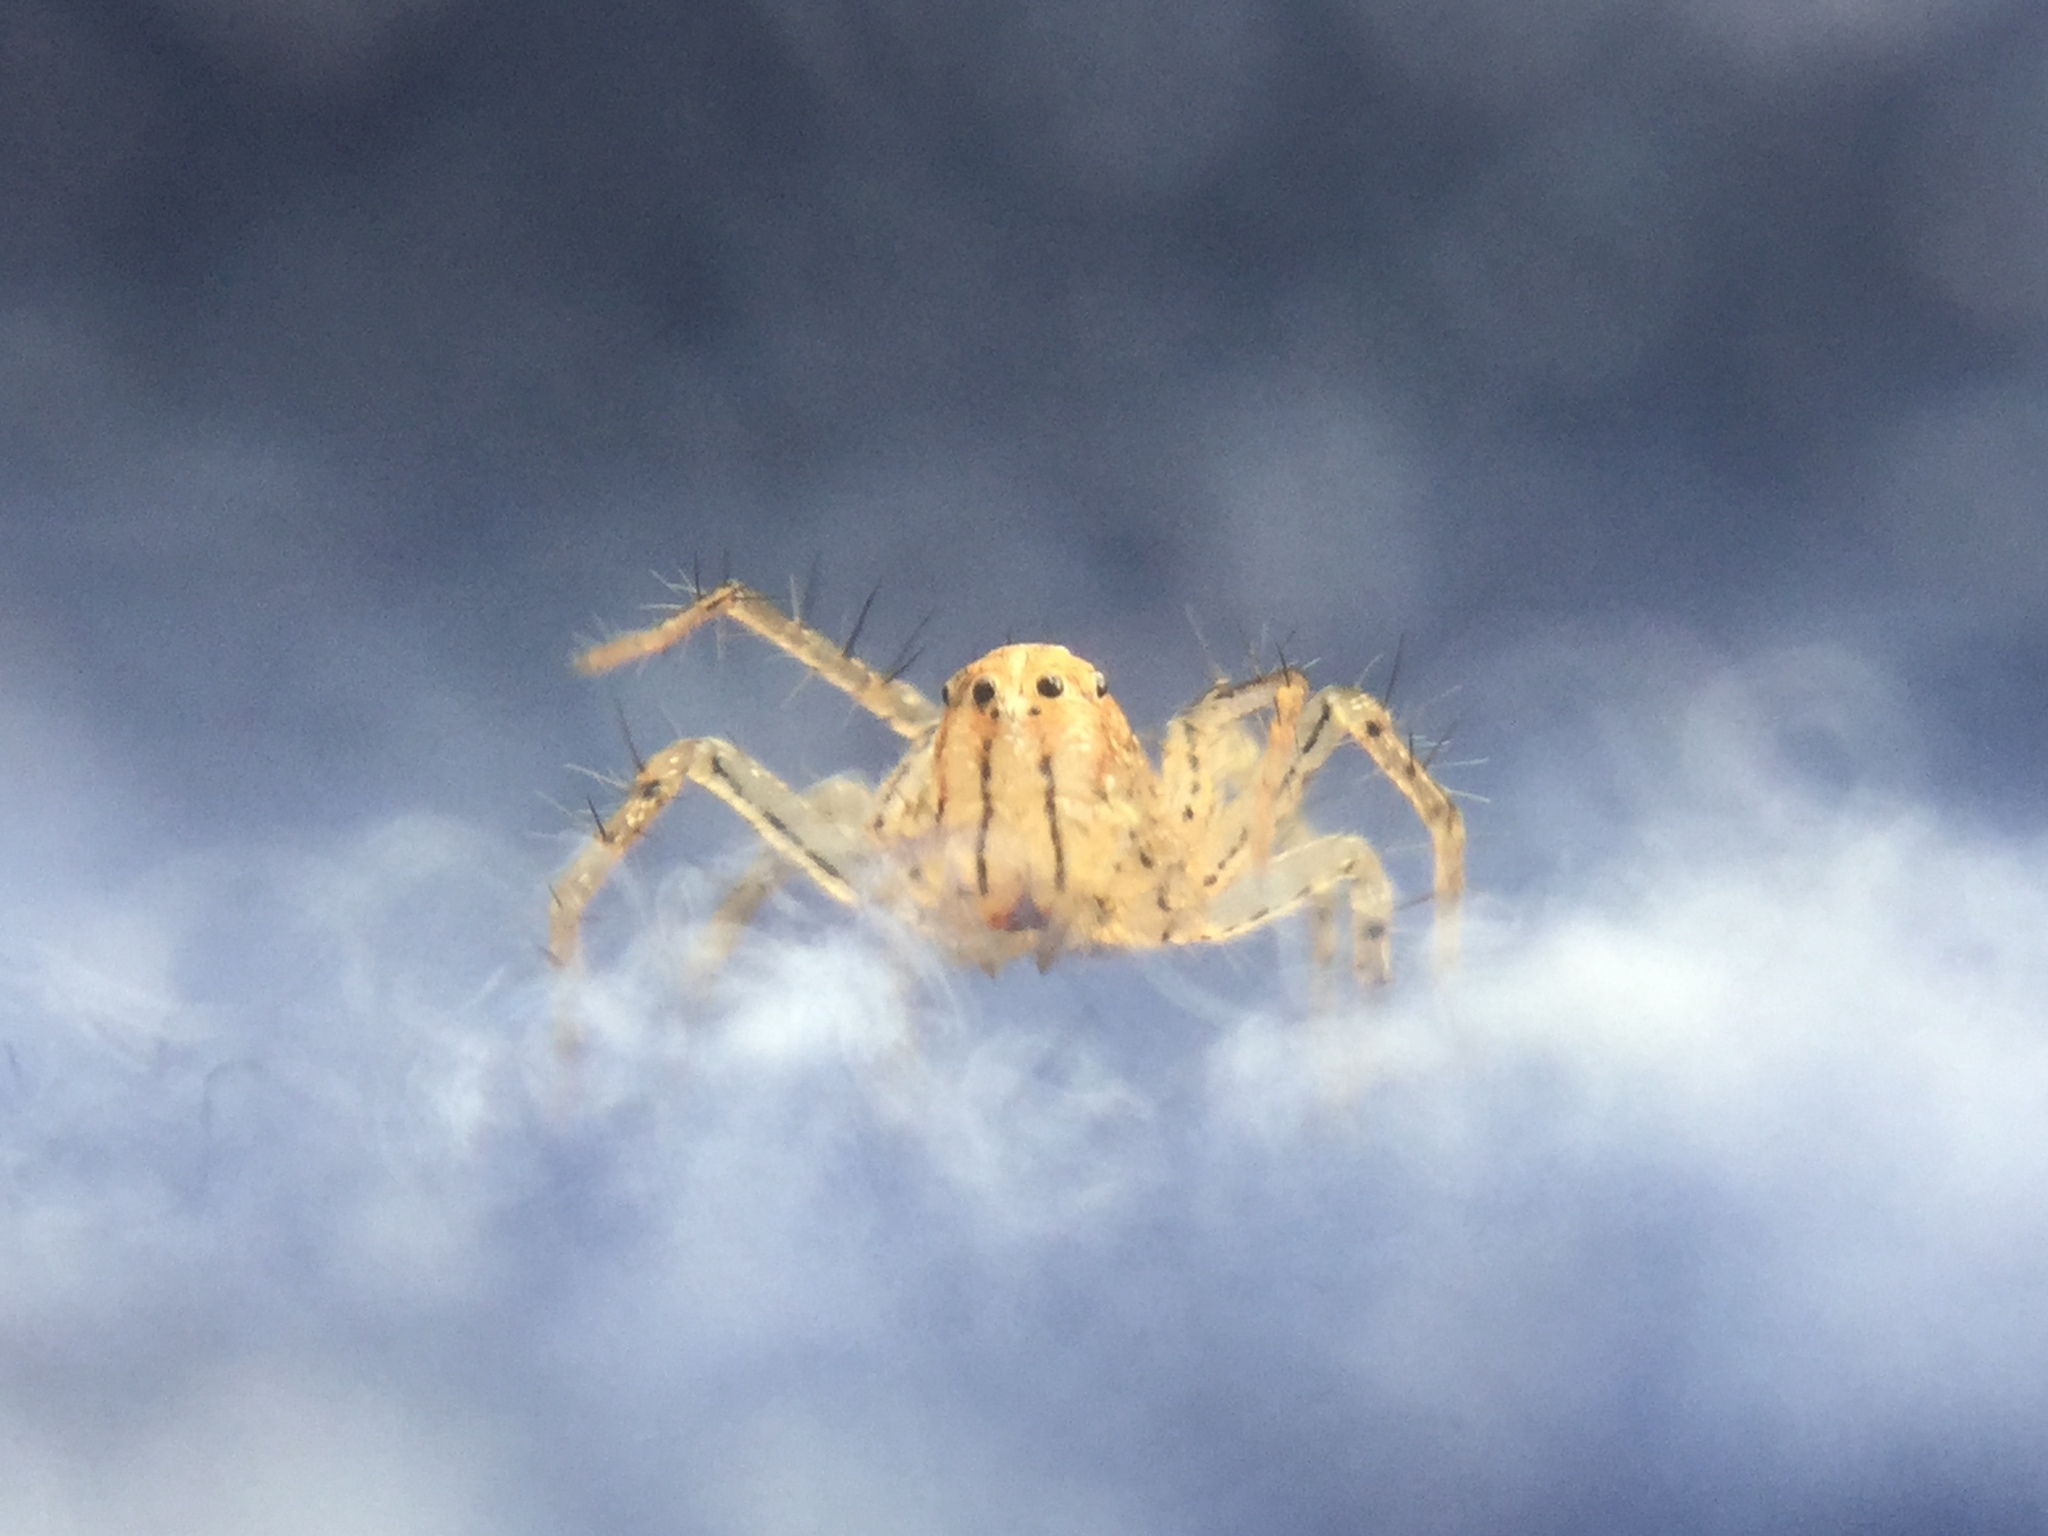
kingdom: Animalia
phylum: Arthropoda
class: Arachnida
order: Araneae
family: Oxyopidae
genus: Oxyopes
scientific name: Oxyopes aglossus
